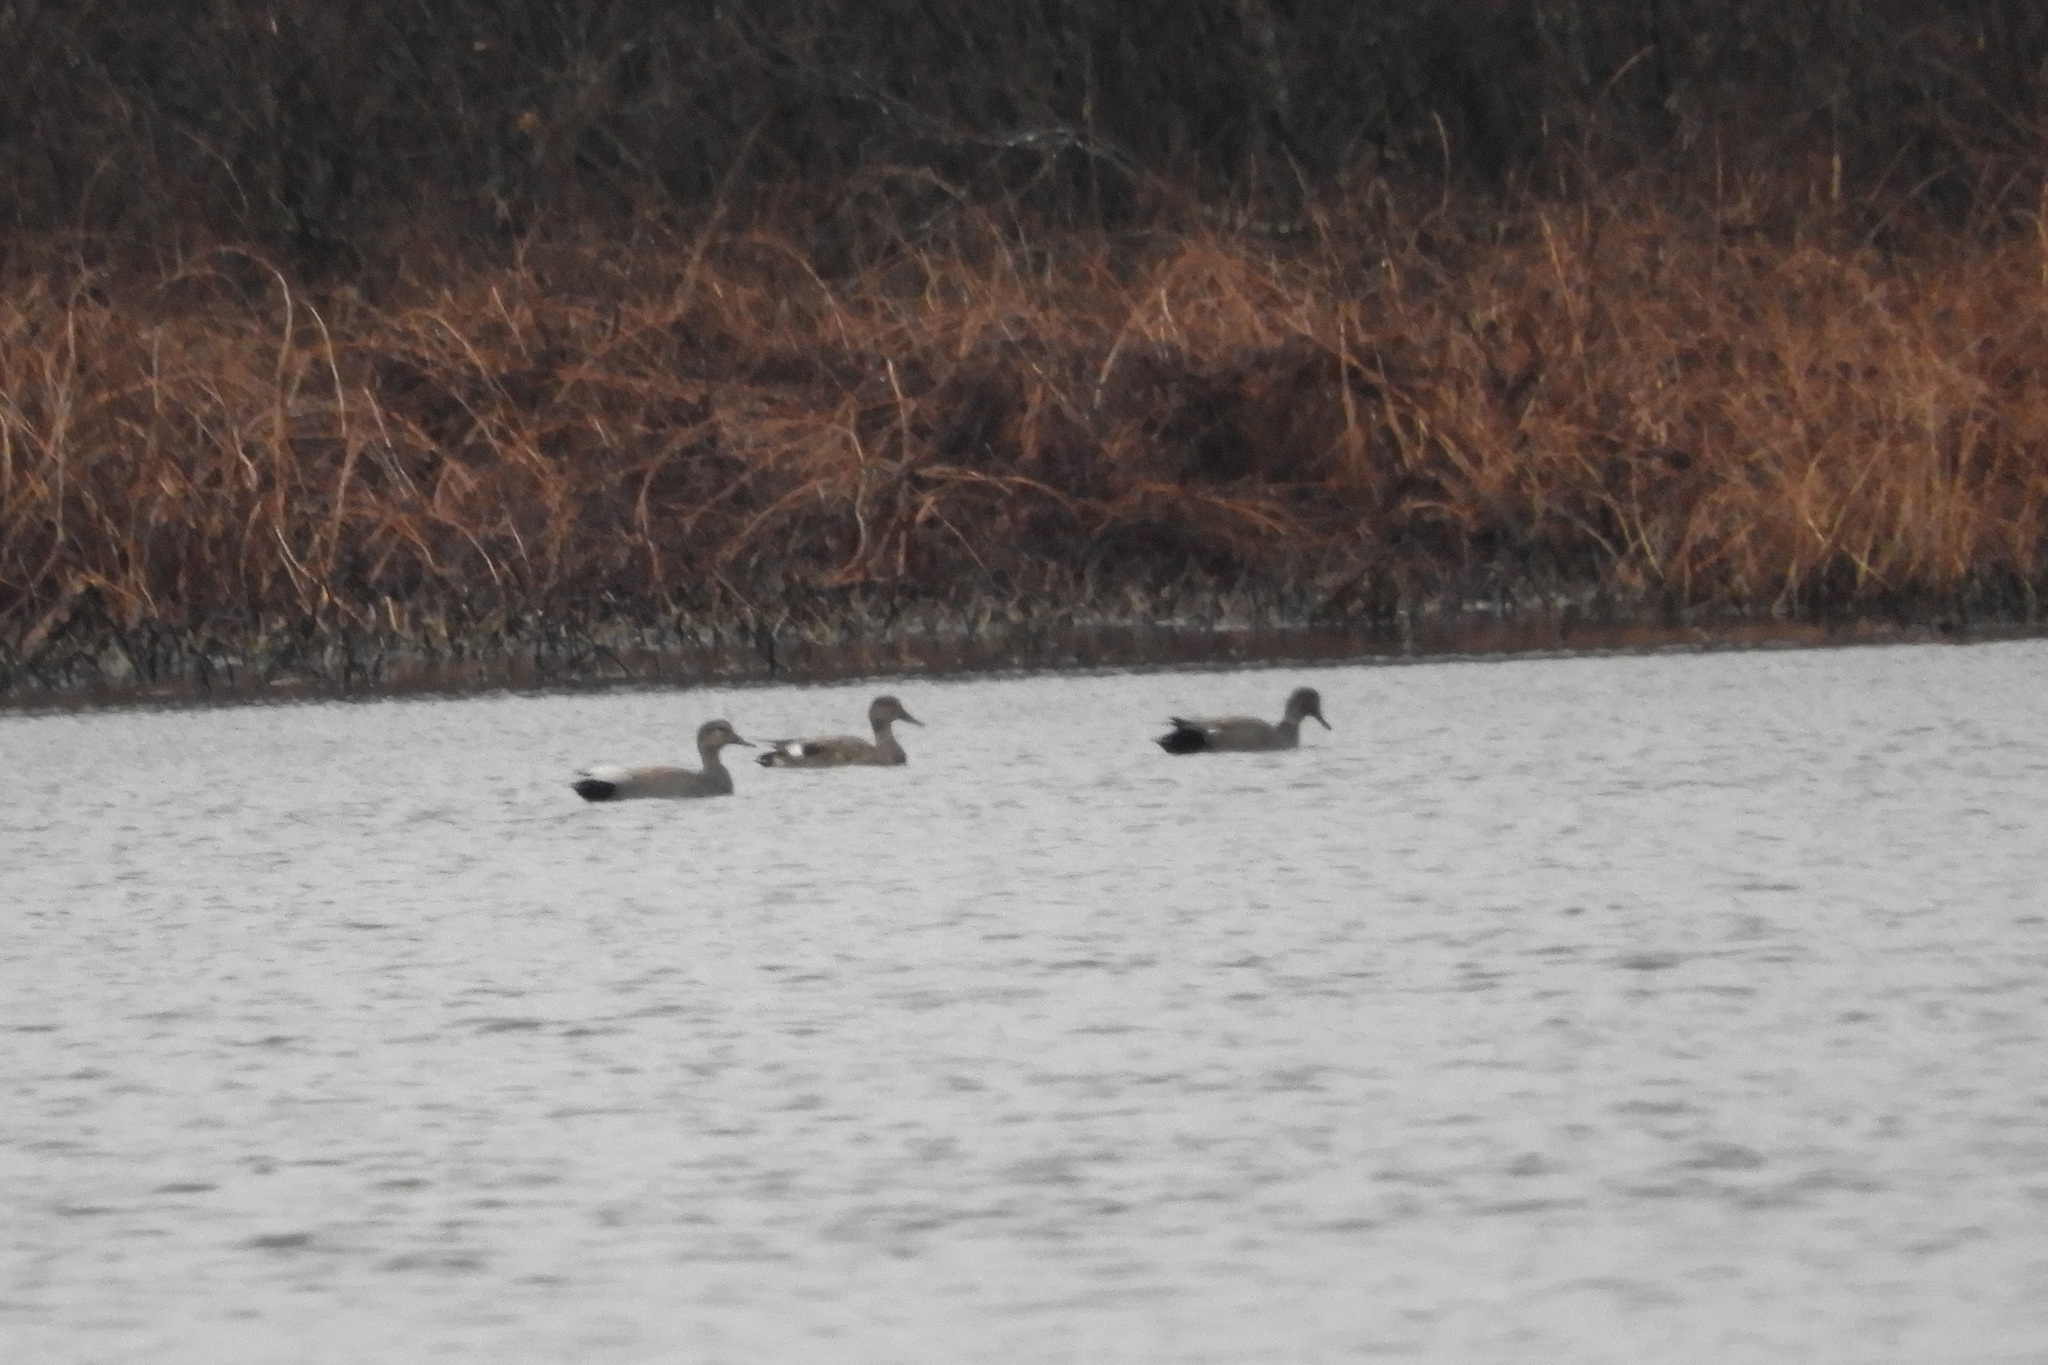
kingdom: Animalia
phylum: Chordata
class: Aves
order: Anseriformes
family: Anatidae
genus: Mareca
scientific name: Mareca strepera
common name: Gadwall
